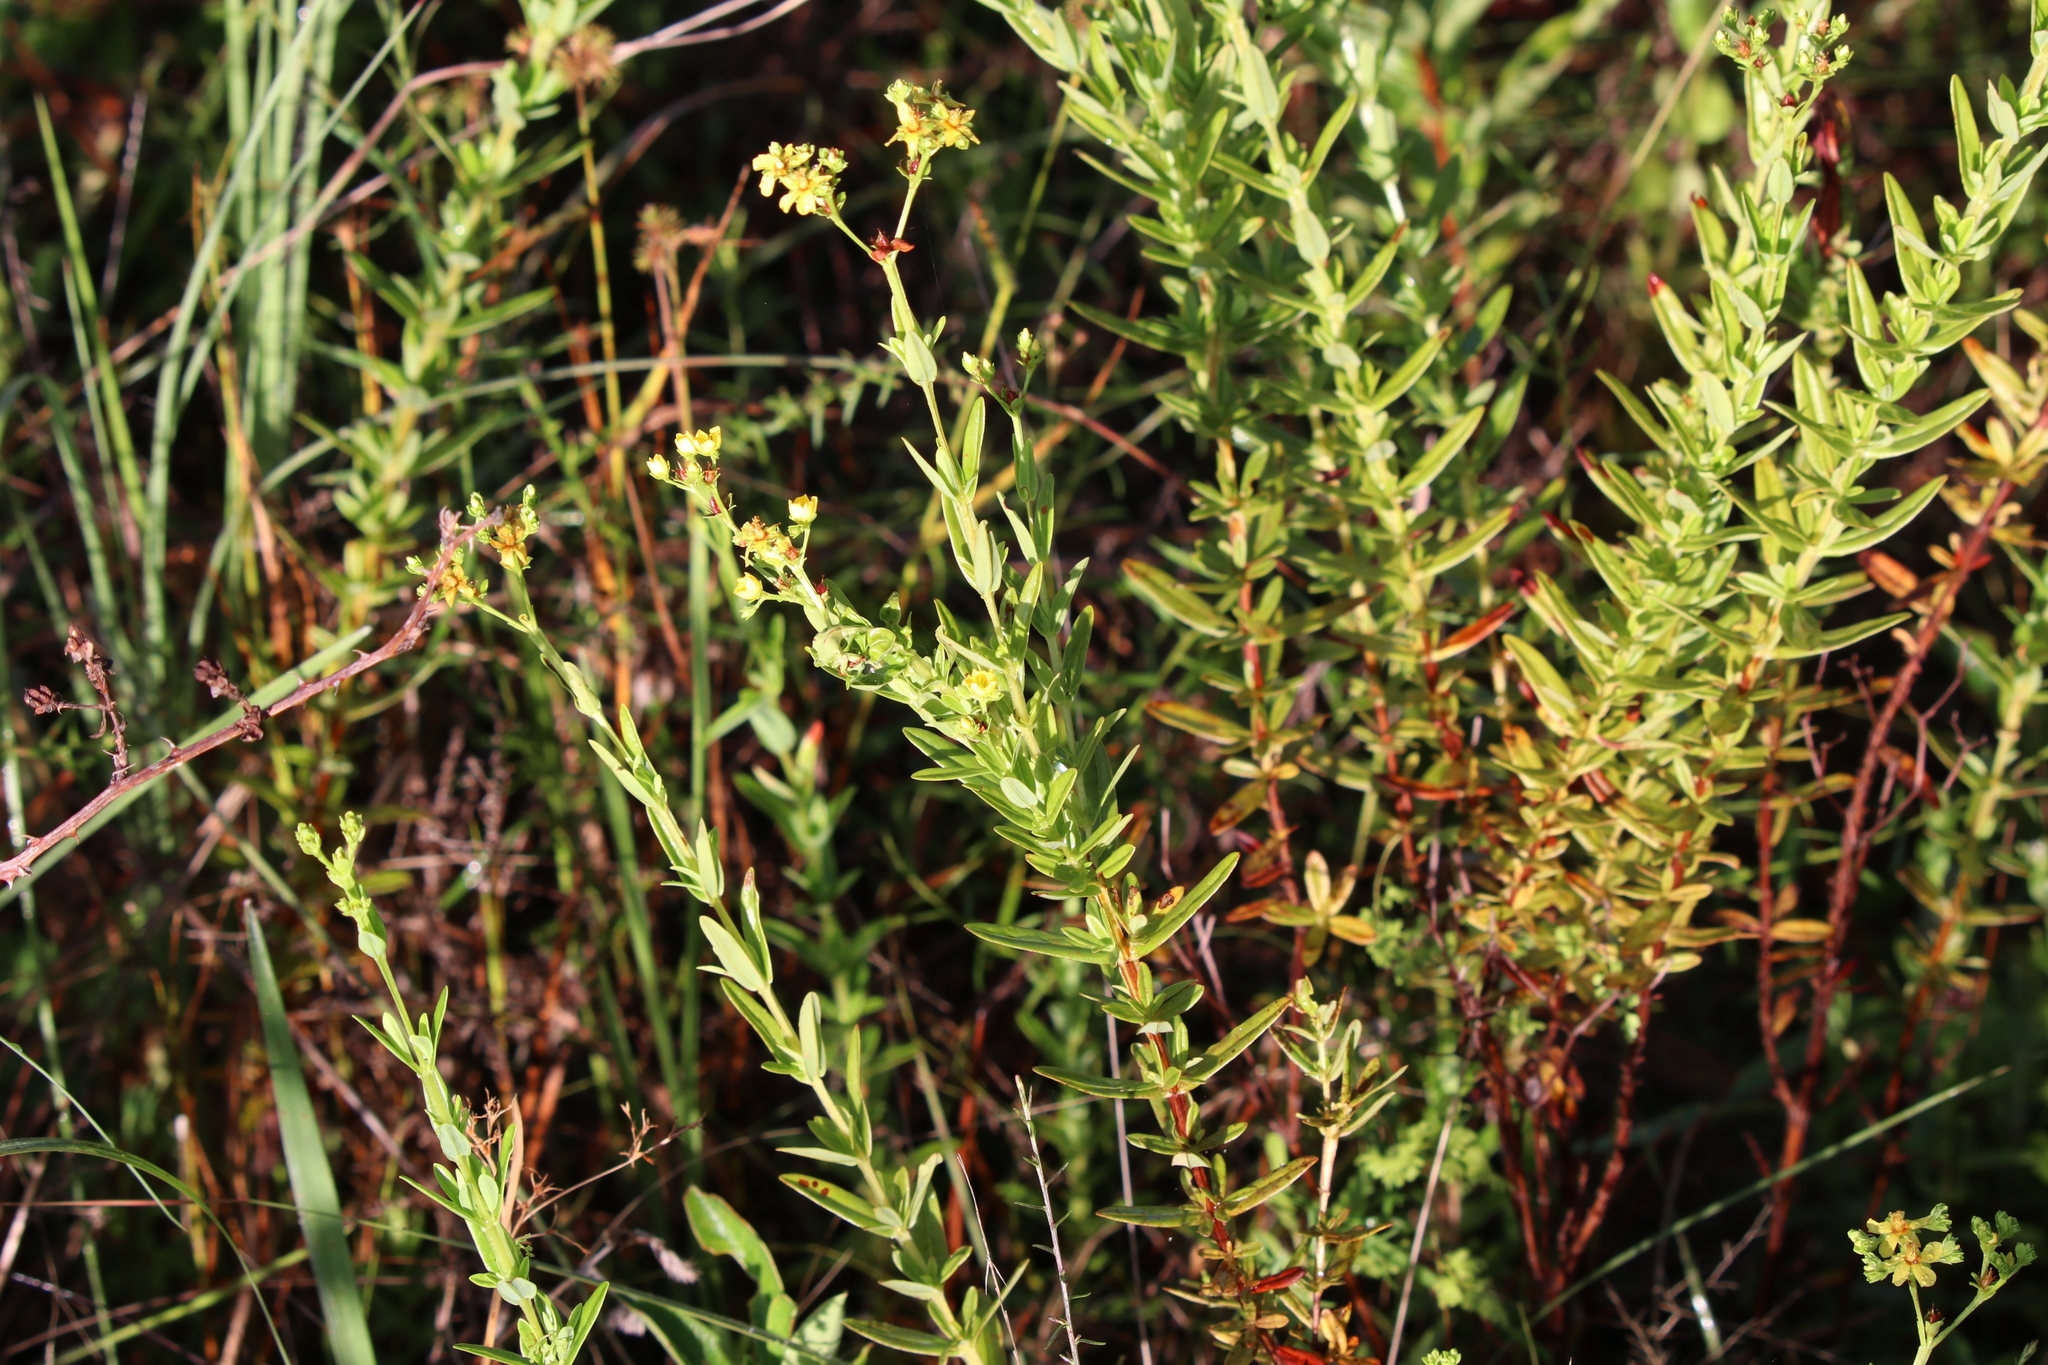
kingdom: Plantae
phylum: Tracheophyta
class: Magnoliopsida
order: Malpighiales
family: Hypericaceae
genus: Hypericum
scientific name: Hypericum cistifolium
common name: Round-pod st. john's-wort
